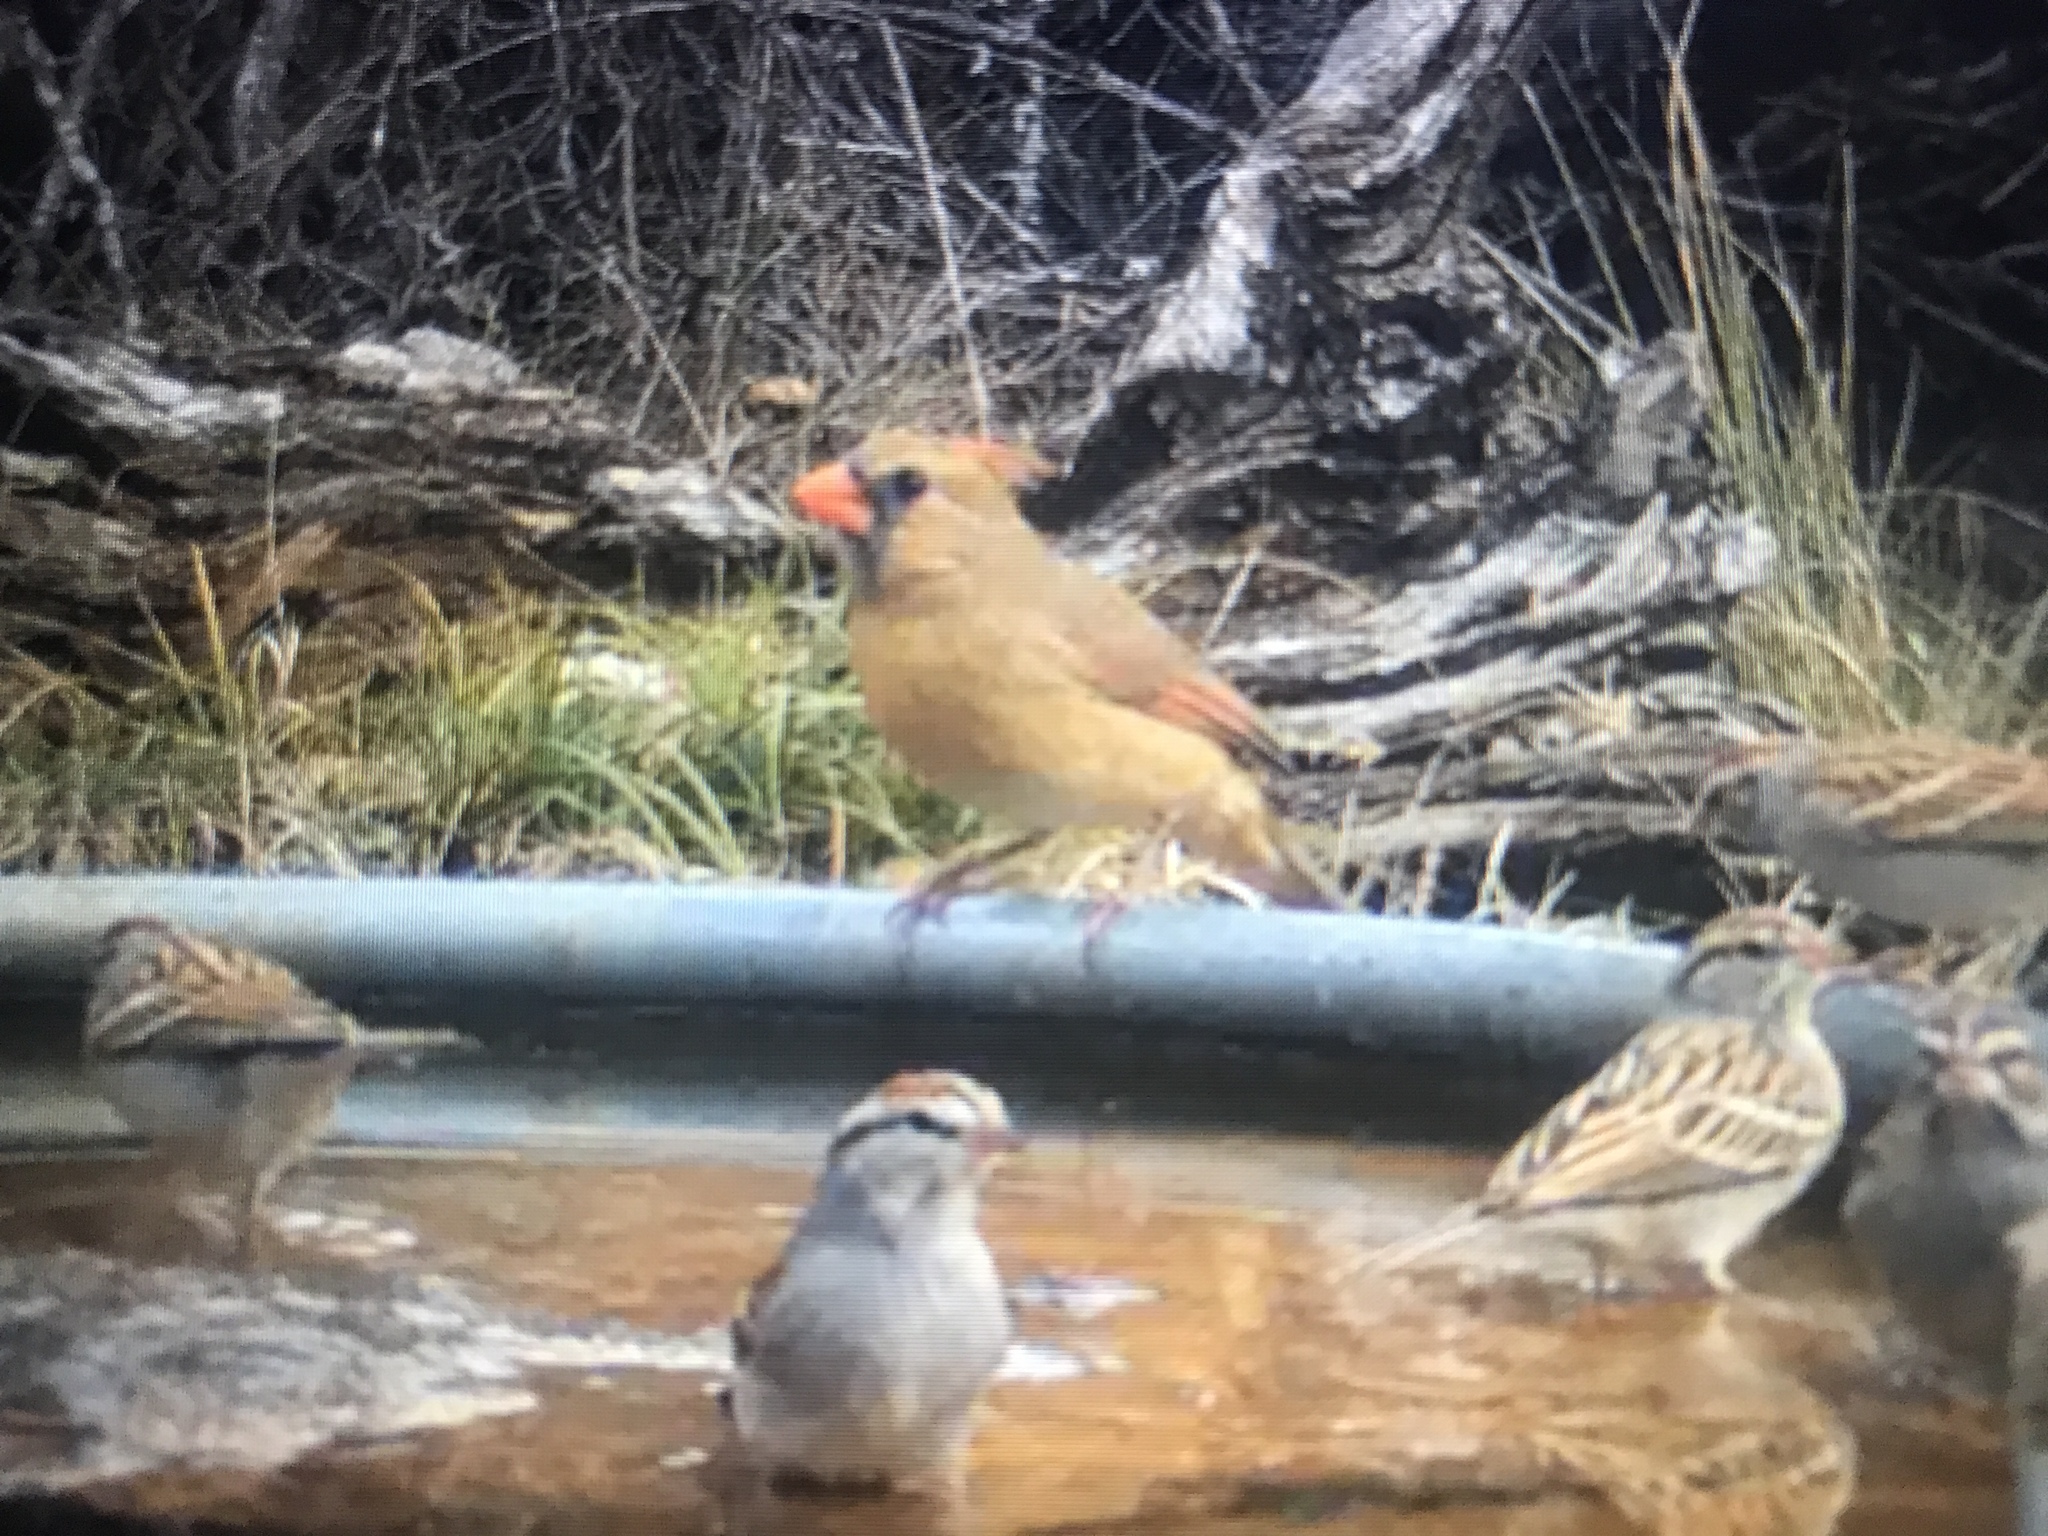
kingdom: Animalia
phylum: Chordata
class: Aves
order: Passeriformes
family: Cardinalidae
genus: Cardinalis
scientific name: Cardinalis cardinalis
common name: Northern cardinal
